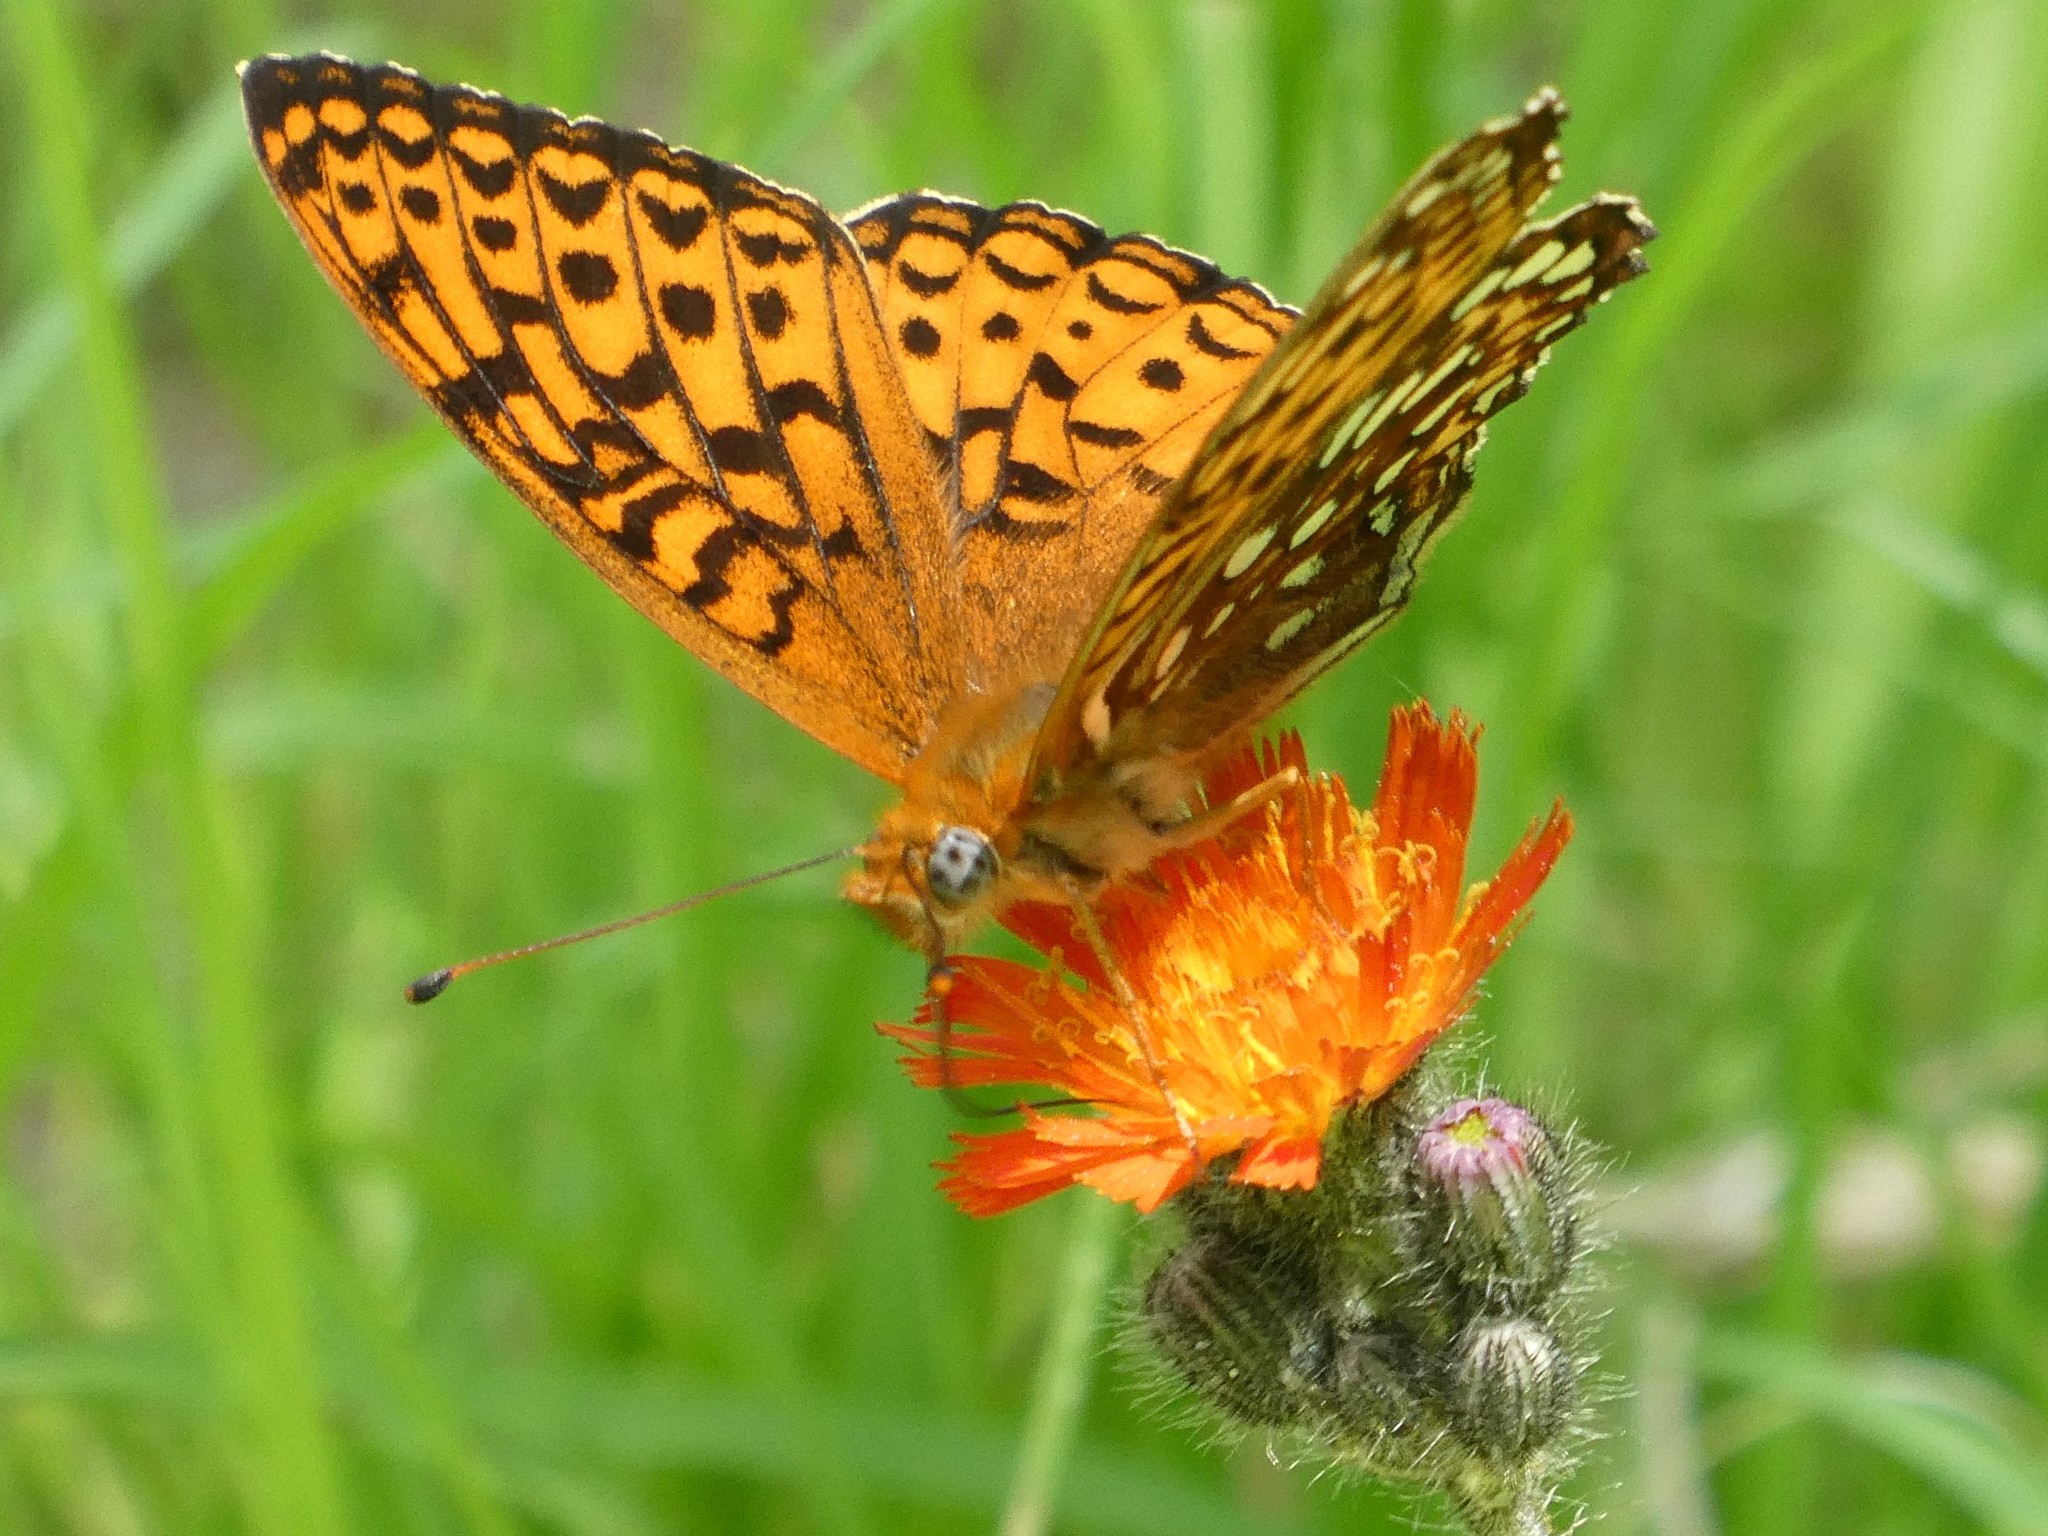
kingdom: Animalia
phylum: Arthropoda
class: Insecta
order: Lepidoptera
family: Nymphalidae
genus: Speyeria
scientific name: Speyeria atlantis
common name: Atlantis fritillary
